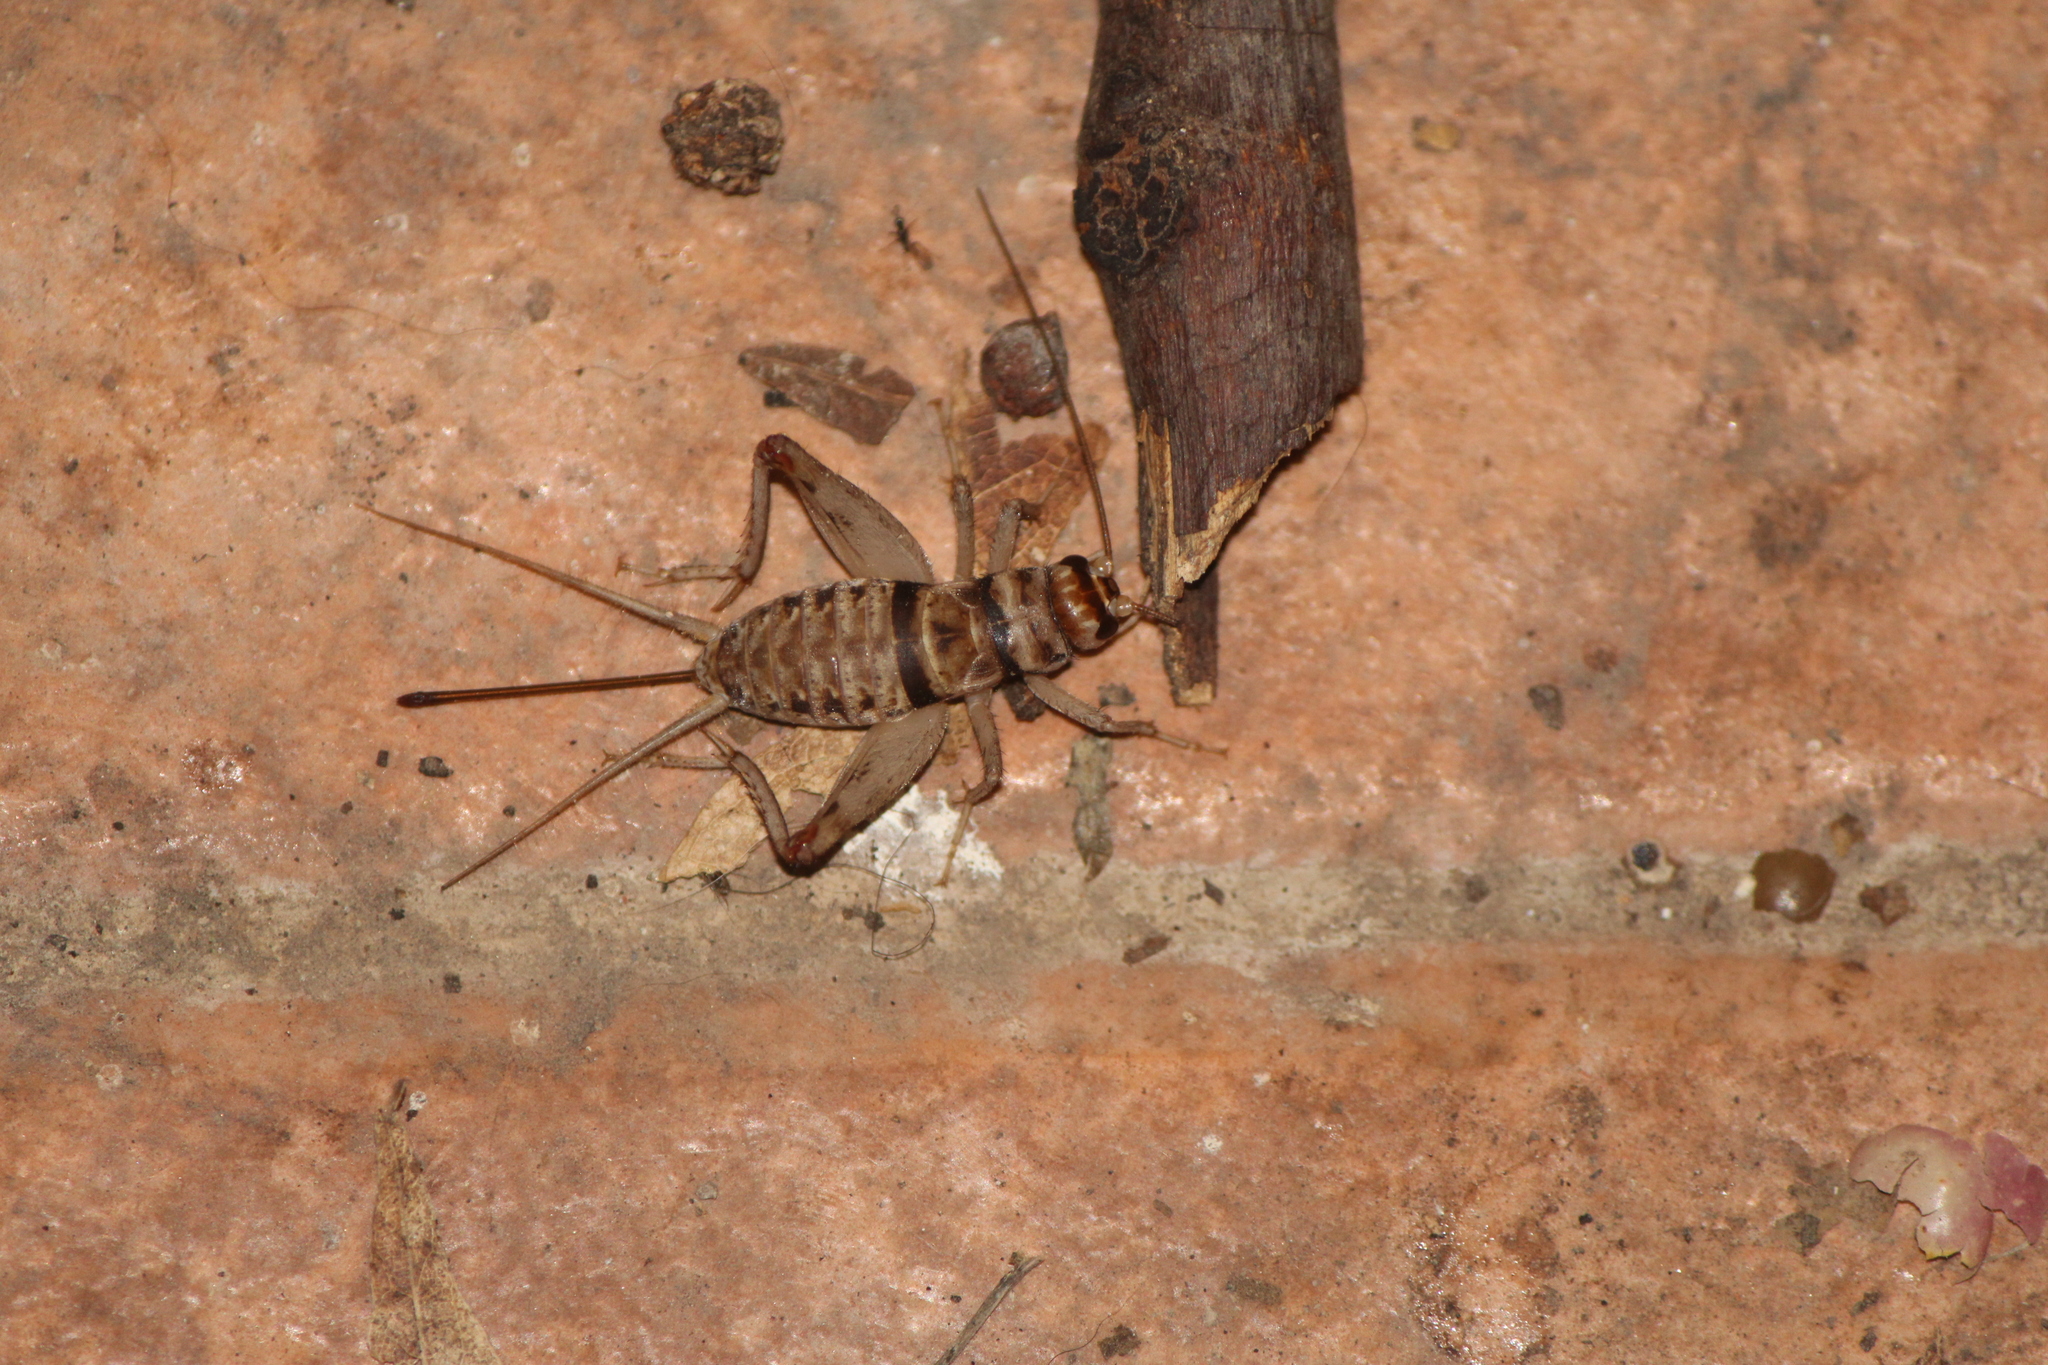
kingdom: Animalia
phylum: Arthropoda
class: Insecta
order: Orthoptera
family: Gryllidae
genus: Gryllodes
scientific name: Gryllodes sigillatus
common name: Tropical house cricket
